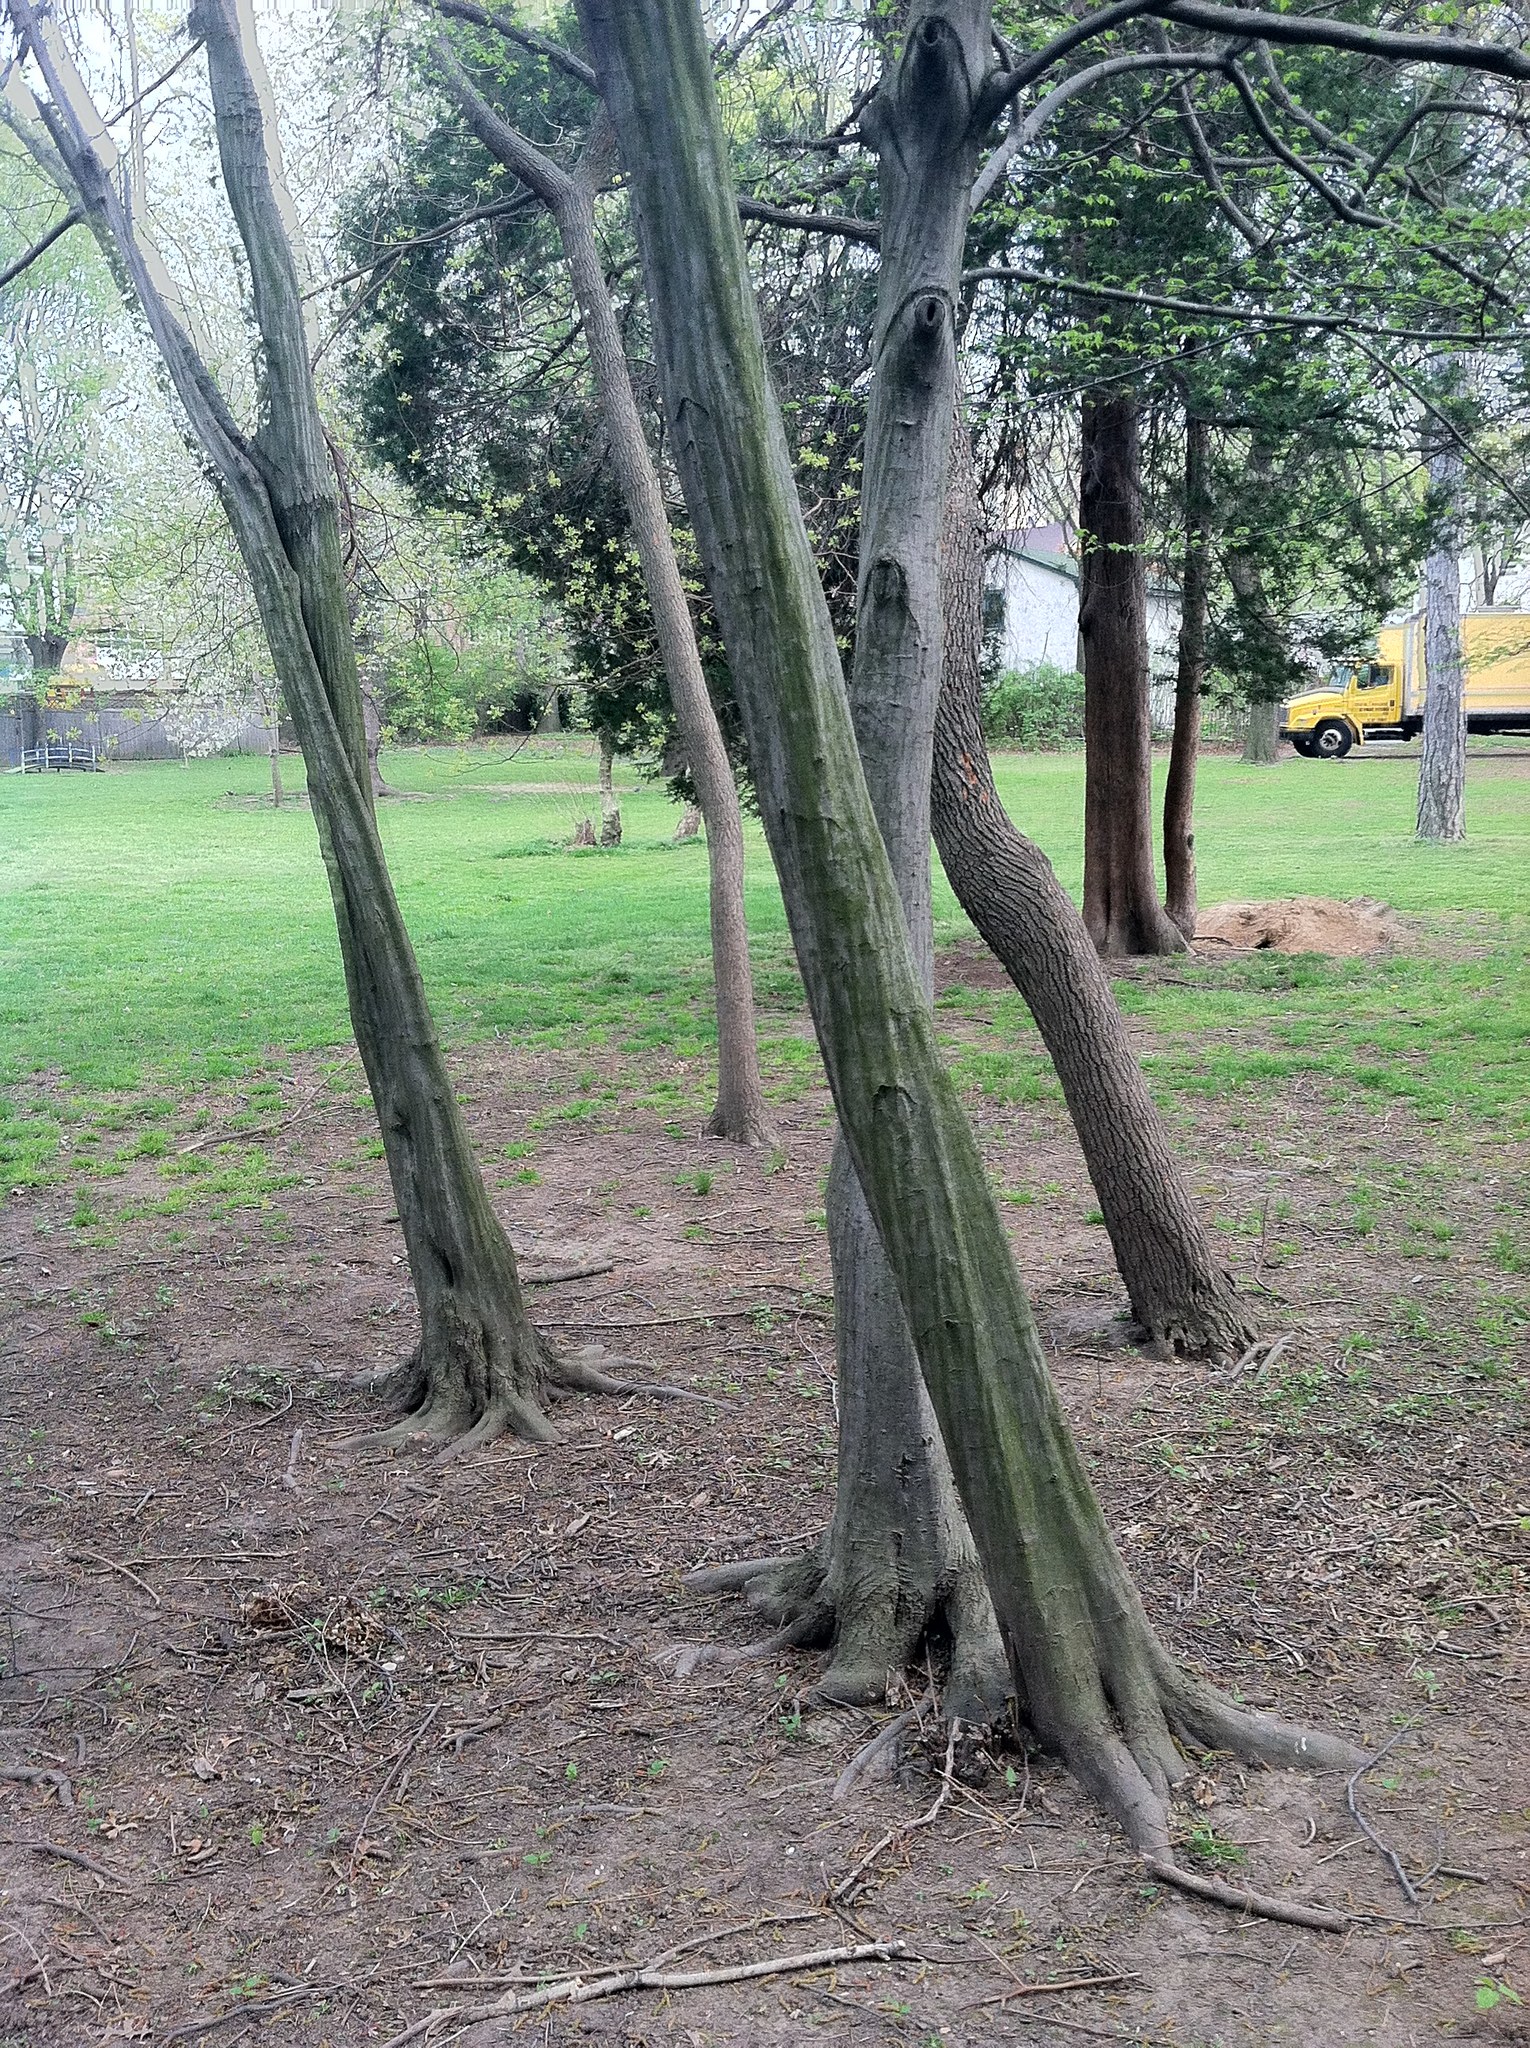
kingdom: Plantae
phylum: Tracheophyta
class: Magnoliopsida
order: Fagales
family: Betulaceae
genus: Carpinus
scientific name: Carpinus caroliniana
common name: American hornbeam
